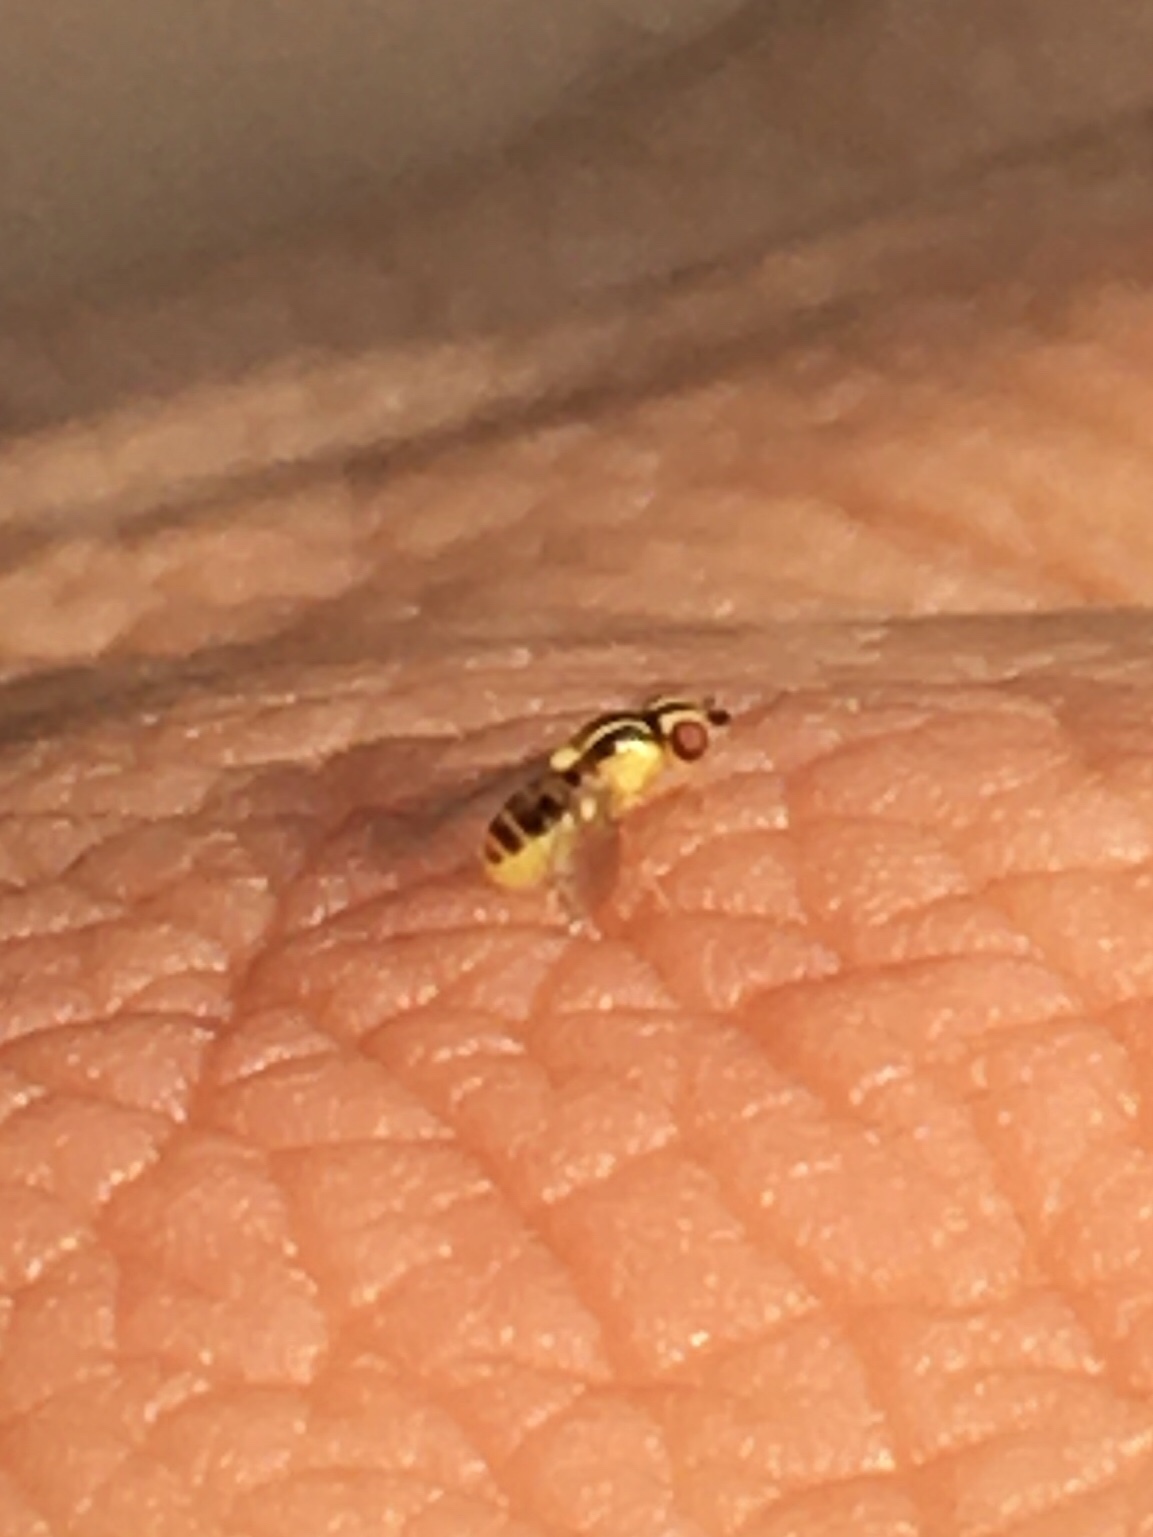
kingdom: Animalia
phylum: Arthropoda
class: Insecta
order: Diptera
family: Chloropidae
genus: Thaumatomyia
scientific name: Thaumatomyia glabra
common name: Chloropid fly
